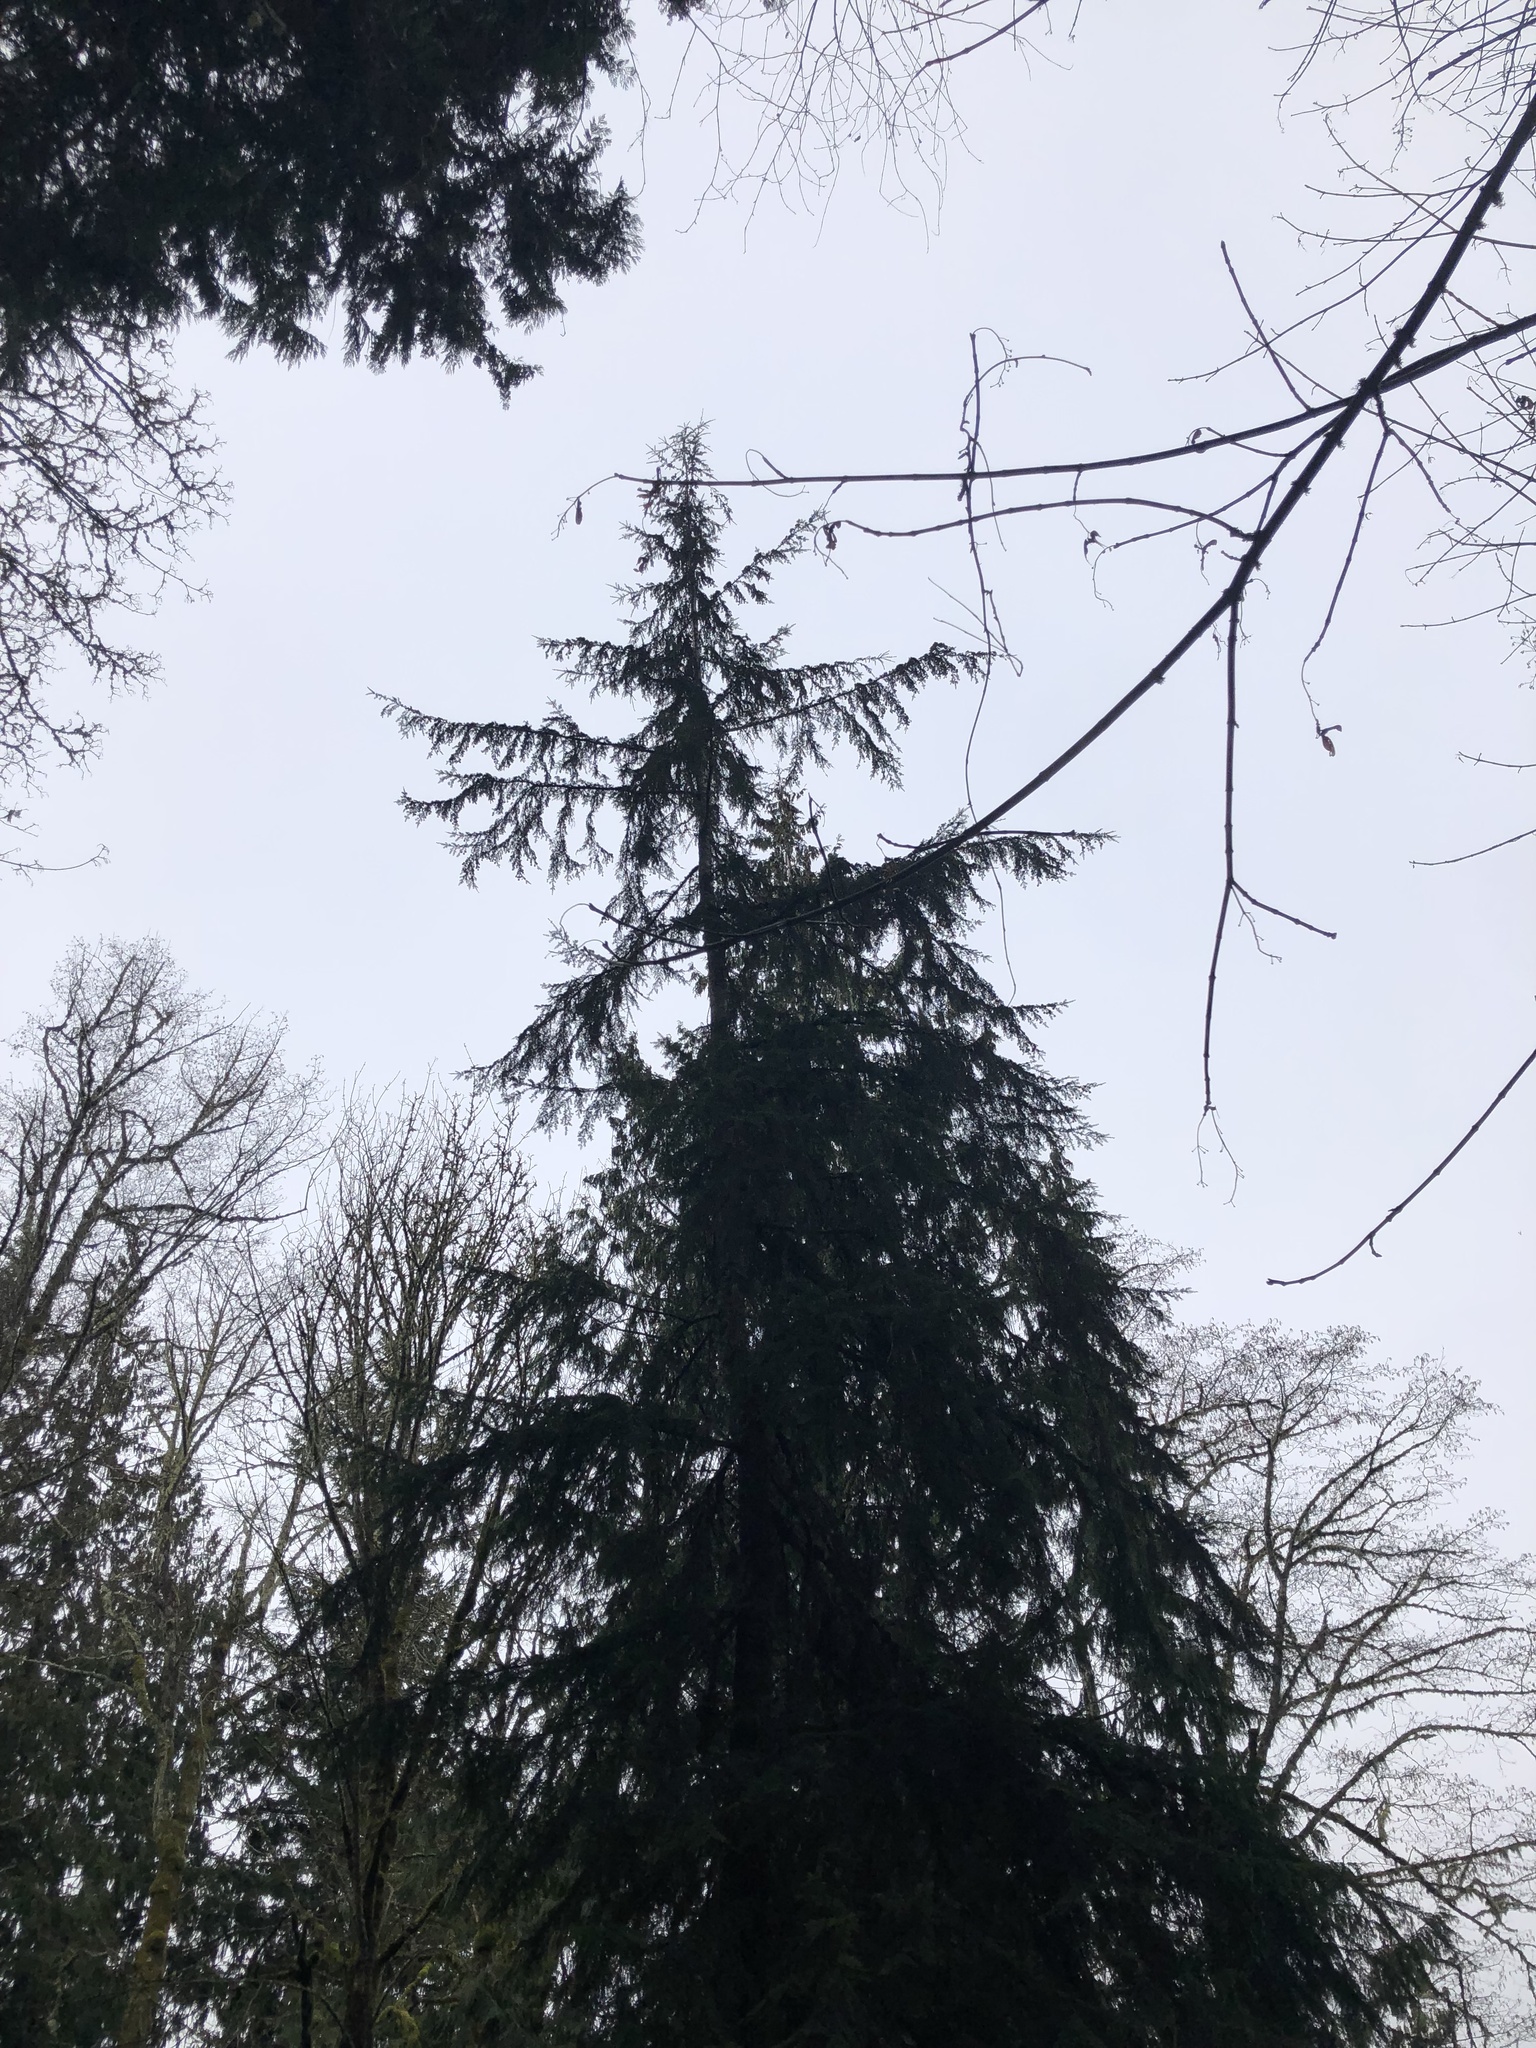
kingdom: Plantae
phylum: Tracheophyta
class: Pinopsida
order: Pinales
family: Pinaceae
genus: Tsuga
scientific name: Tsuga heterophylla
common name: Western hemlock
